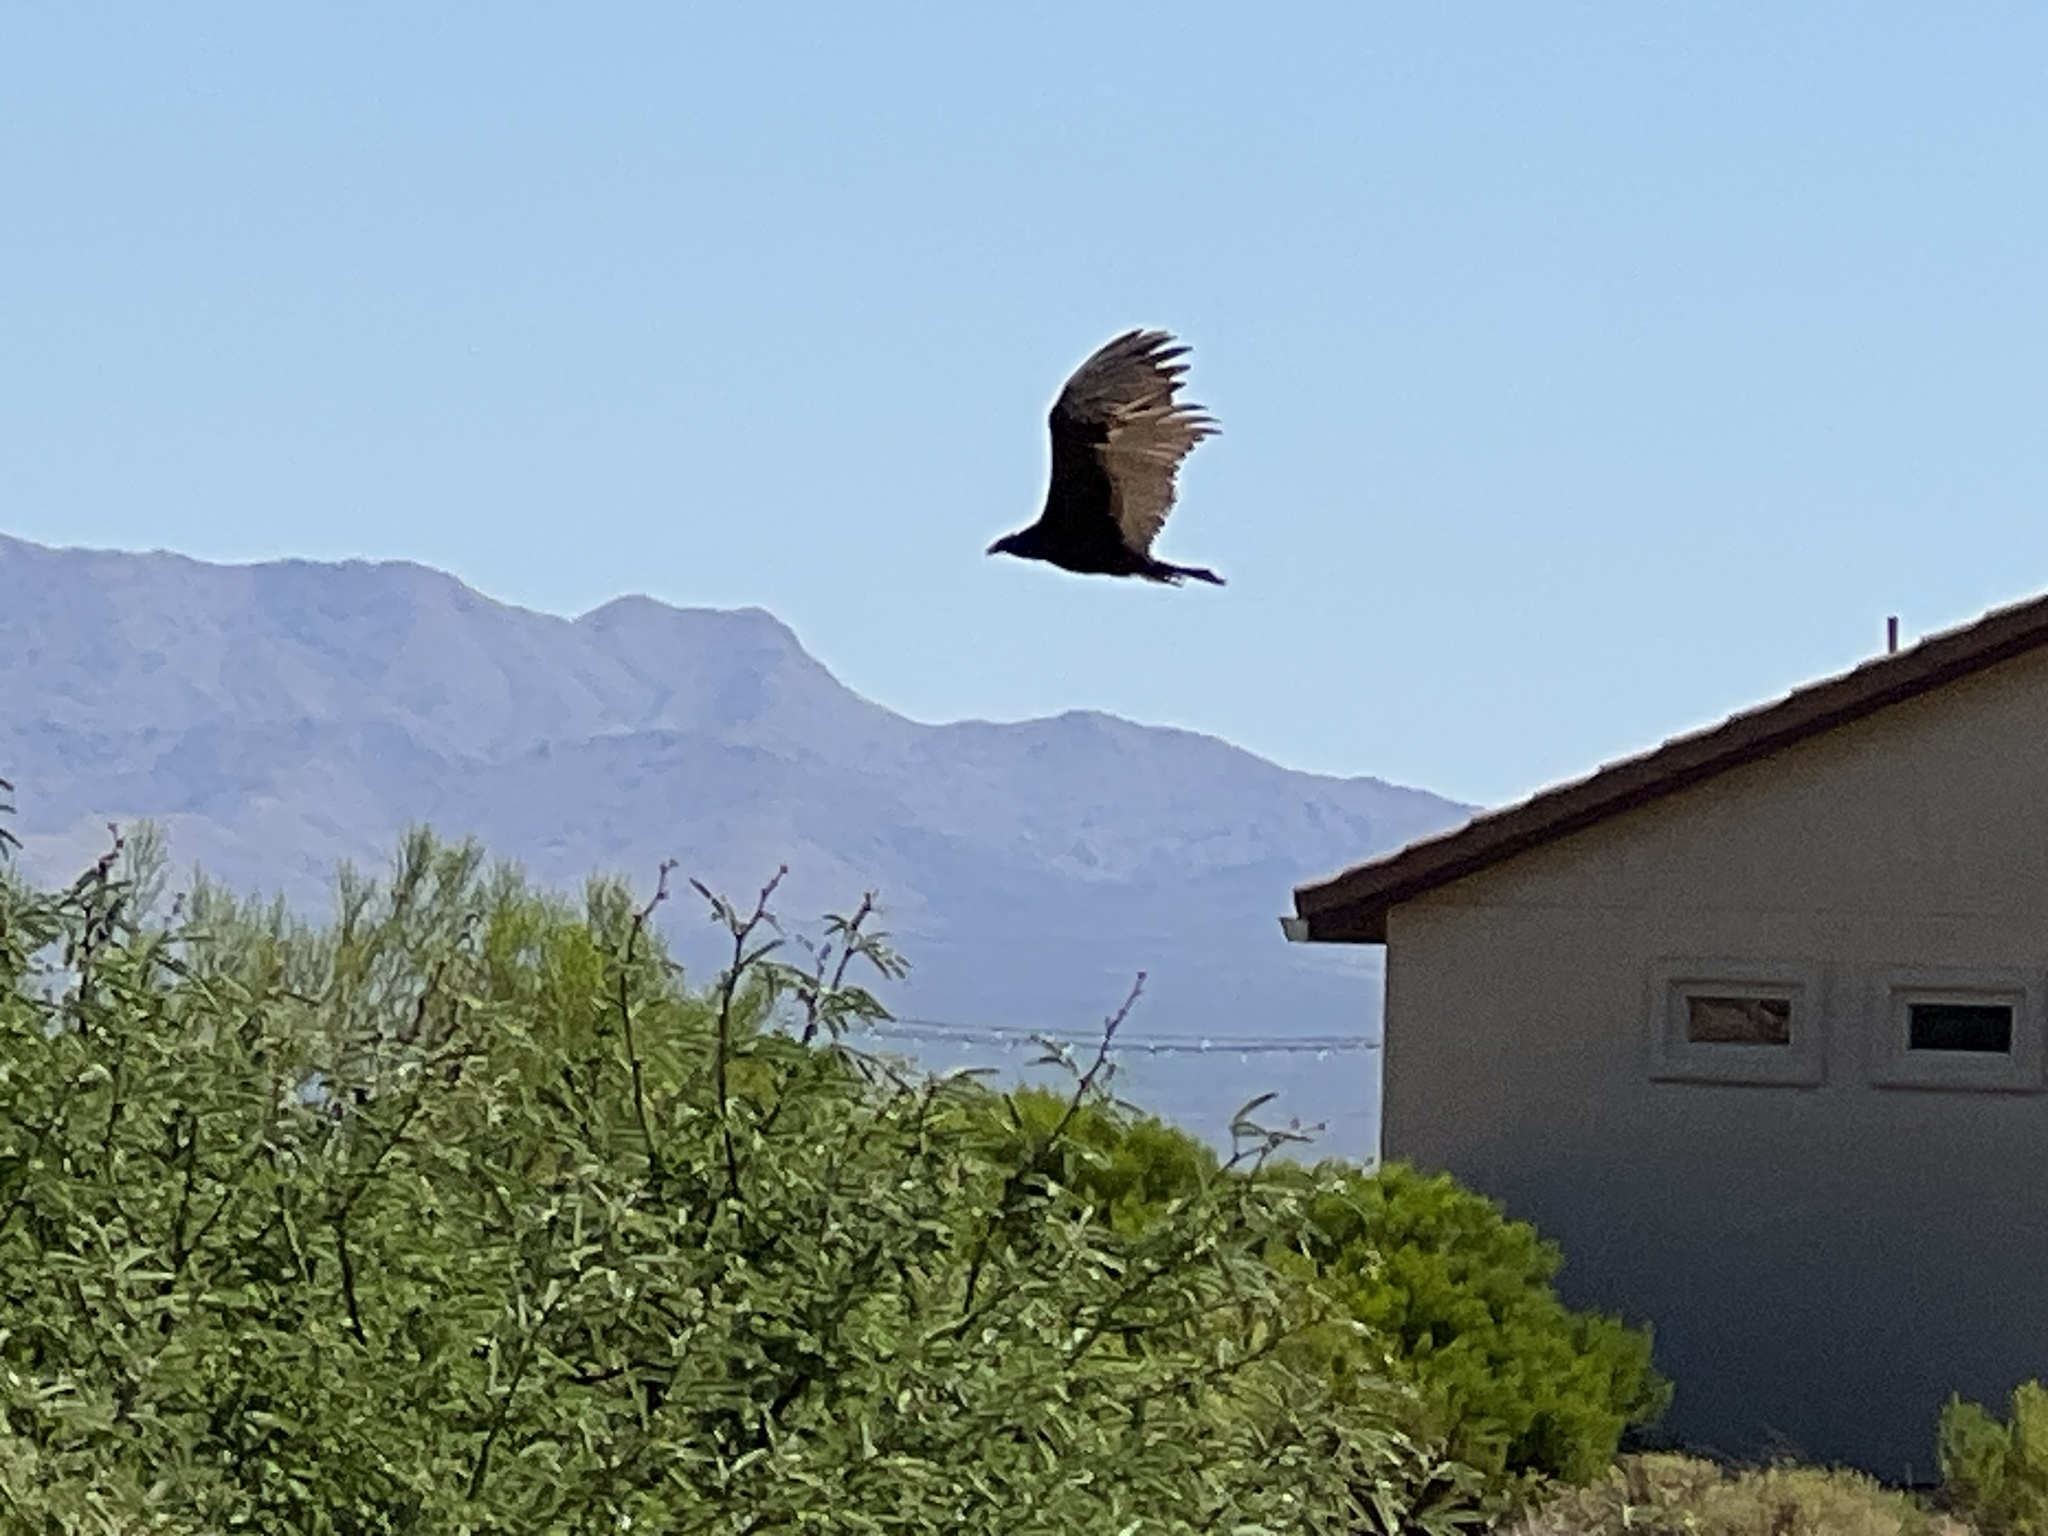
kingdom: Animalia
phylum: Chordata
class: Aves
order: Accipitriformes
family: Cathartidae
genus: Cathartes
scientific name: Cathartes aura
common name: Turkey vulture
